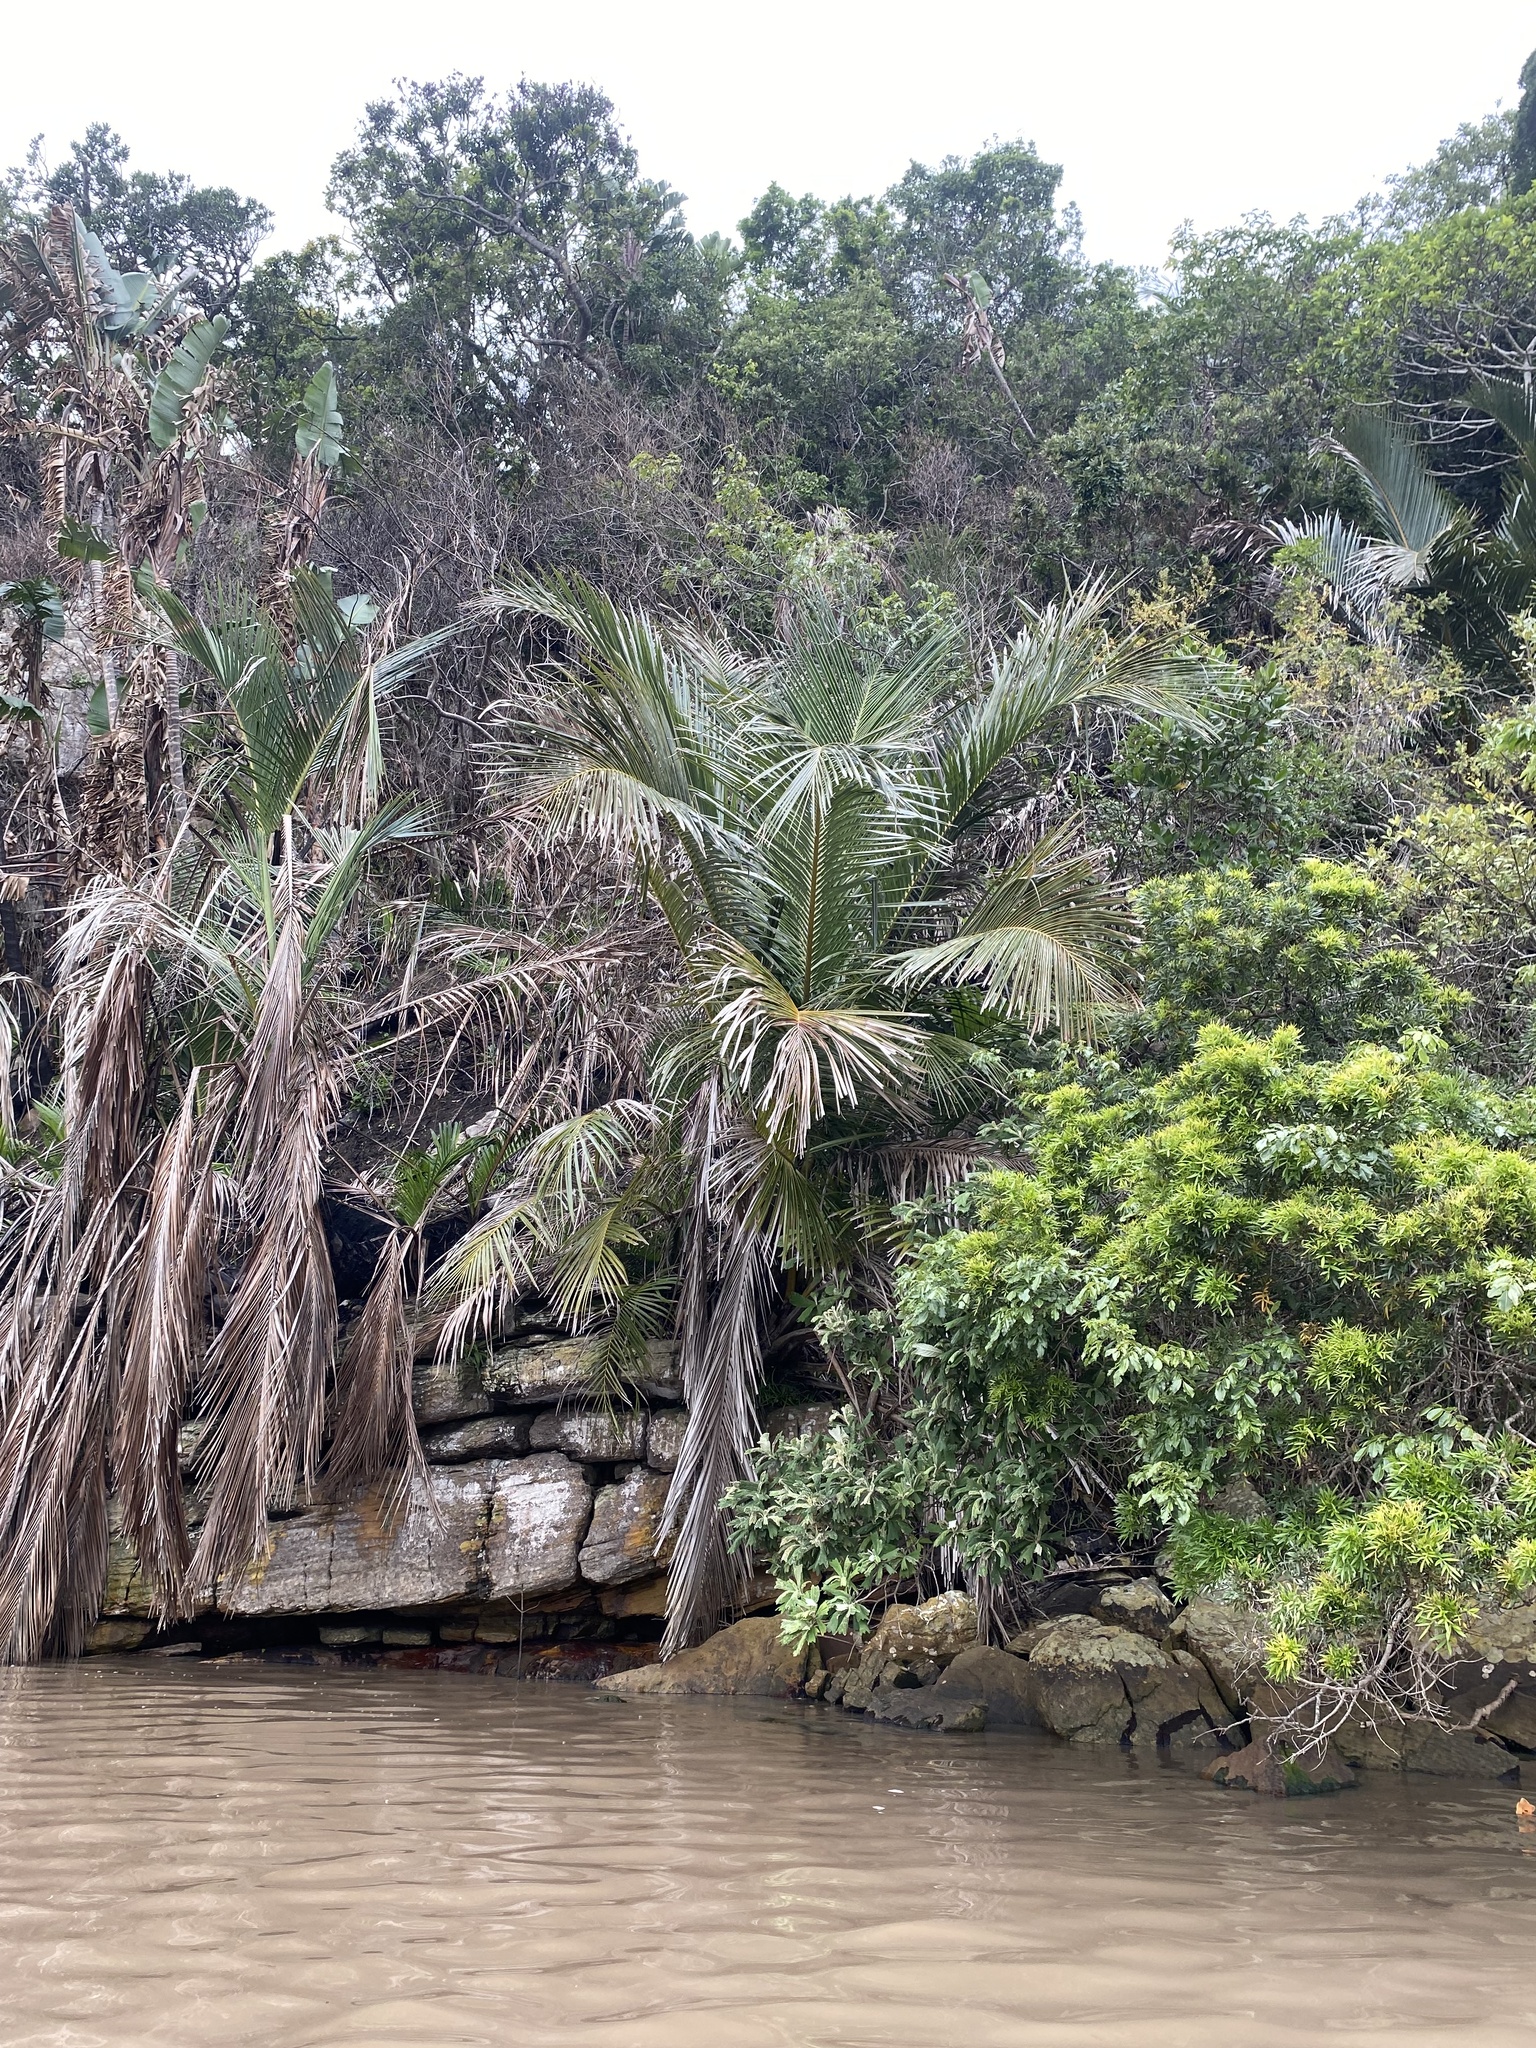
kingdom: Plantae
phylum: Tracheophyta
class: Liliopsida
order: Arecales
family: Arecaceae
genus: Jubaeopsis
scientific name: Jubaeopsis caffra
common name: Pondoland palm
